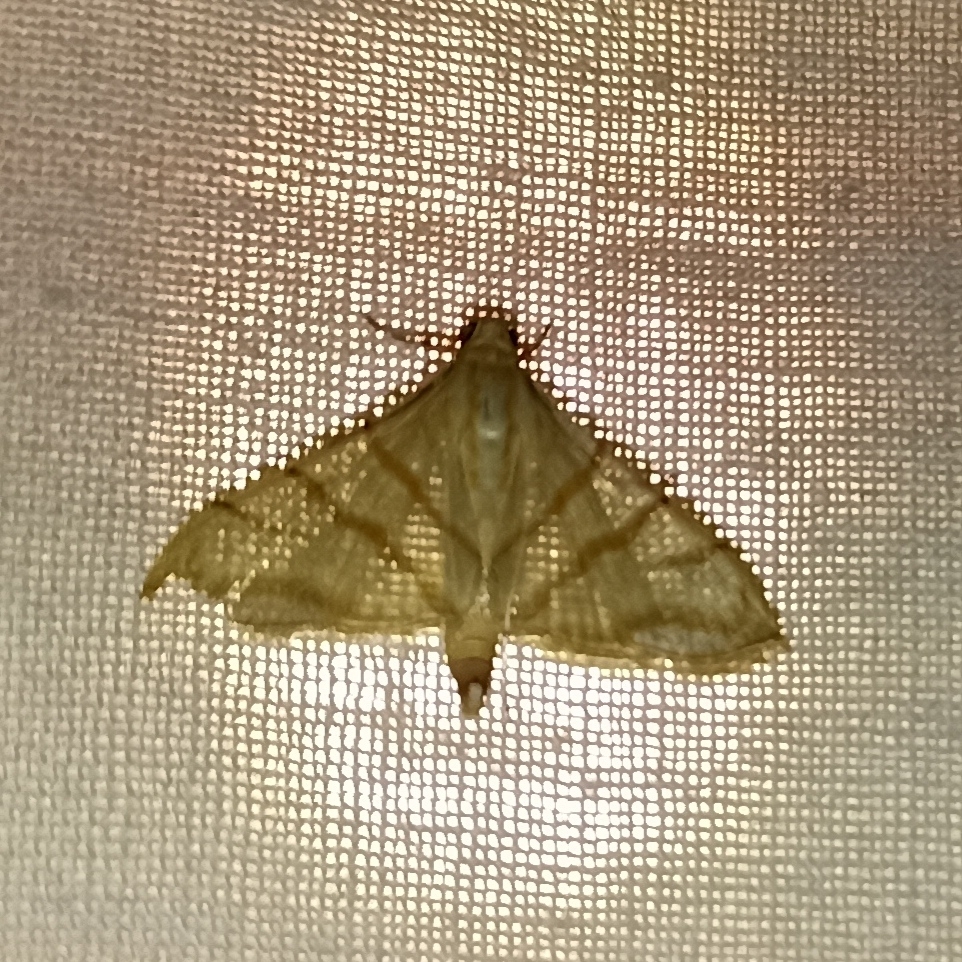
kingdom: Animalia
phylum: Arthropoda
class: Insecta
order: Lepidoptera
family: Crambidae
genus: Pagyda
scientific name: Pagyda salvalis
